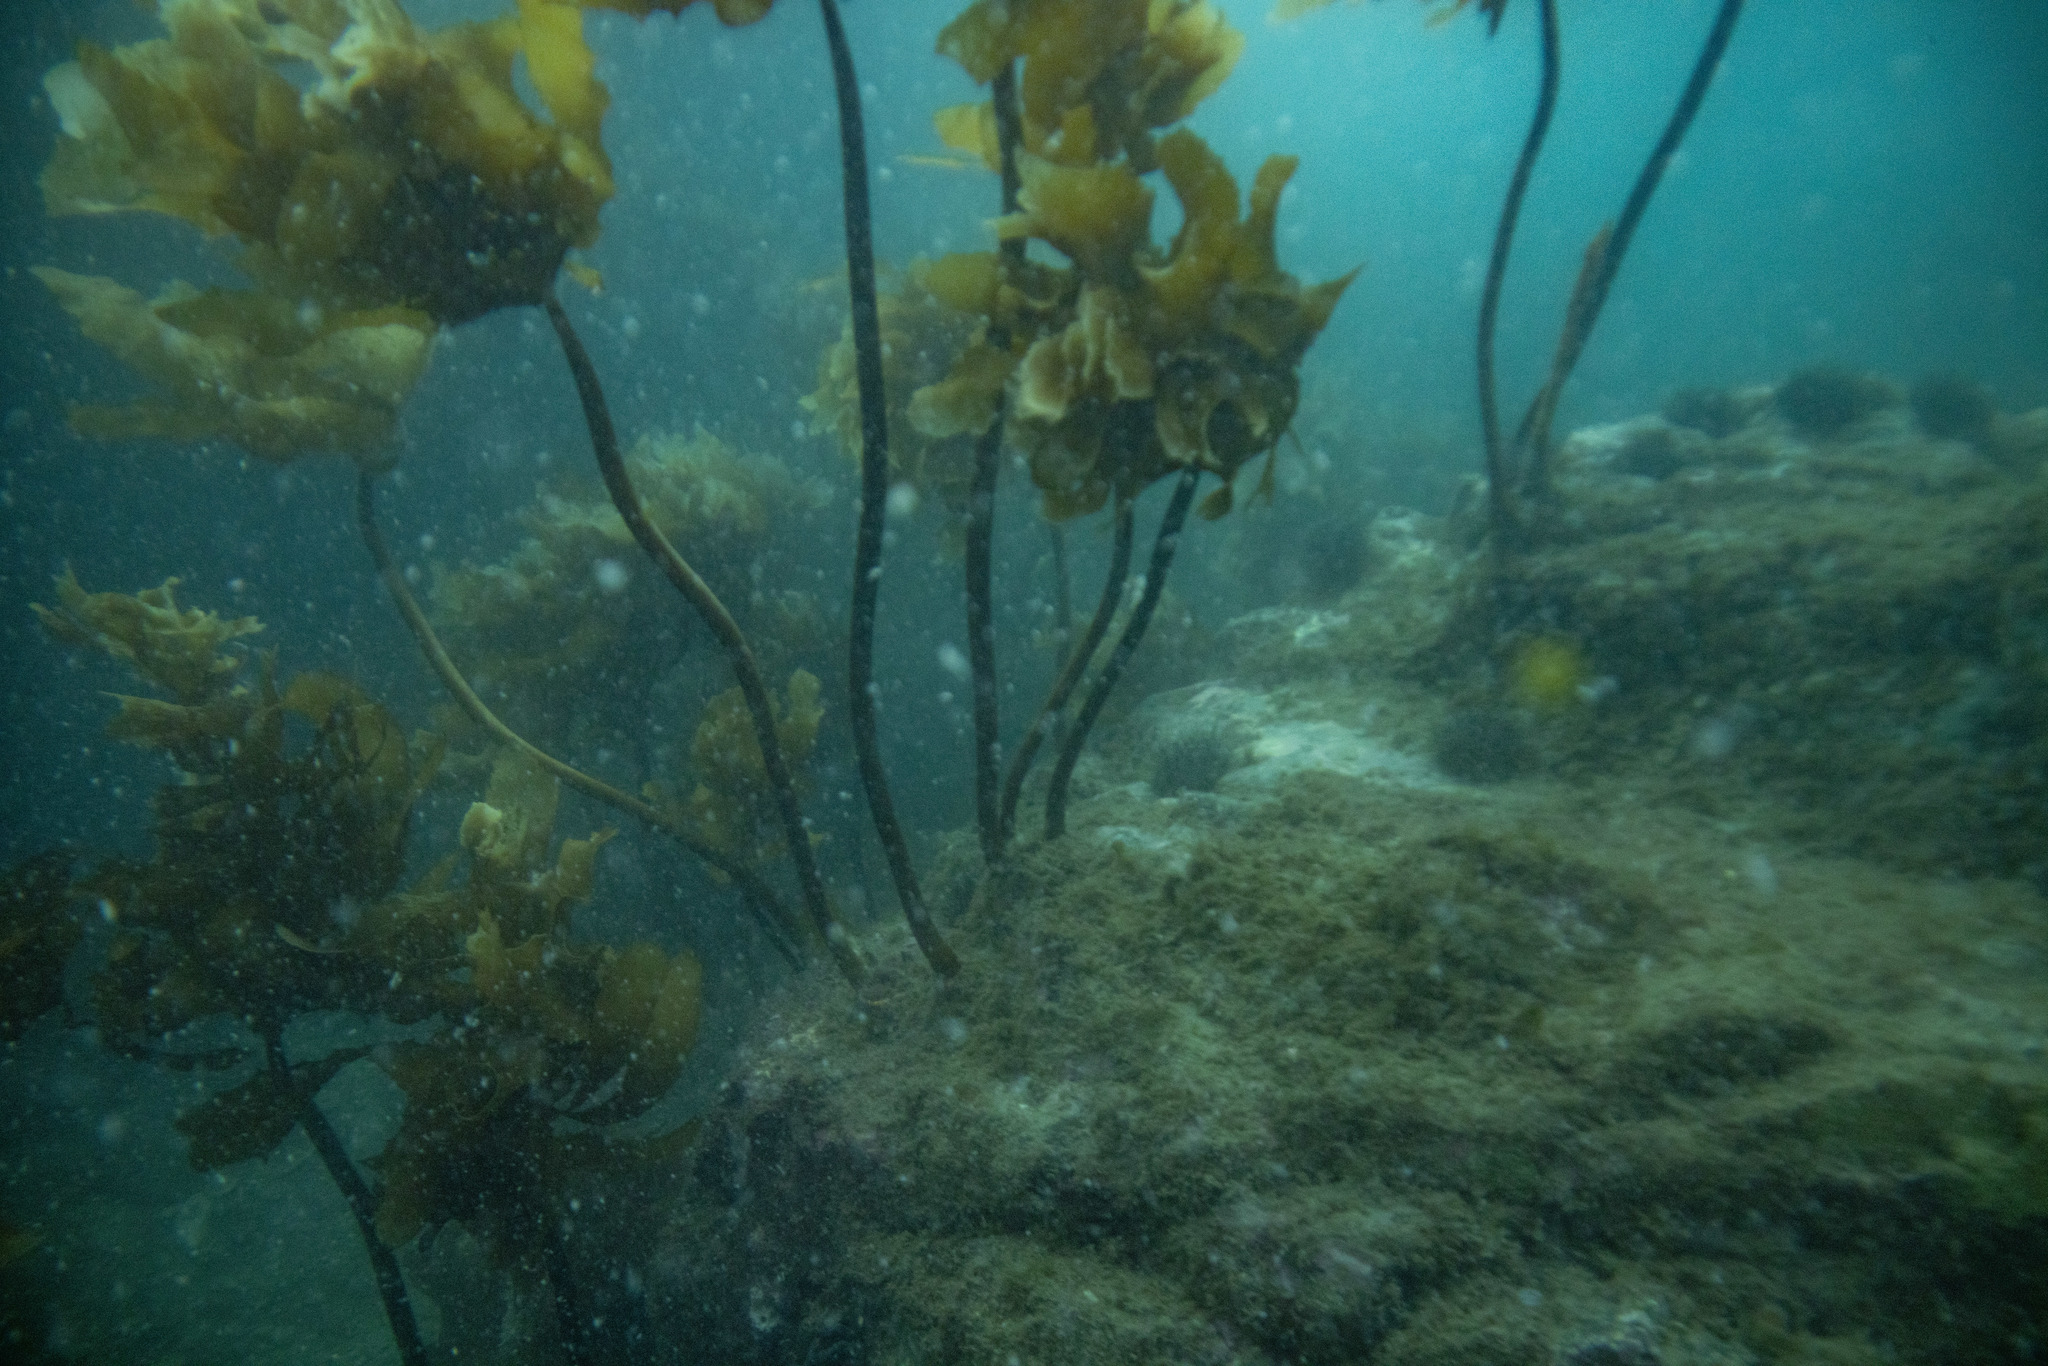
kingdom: Animalia
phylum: Echinodermata
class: Echinoidea
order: Camarodonta
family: Echinometridae
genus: Evechinus
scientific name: Evechinus chloroticus
